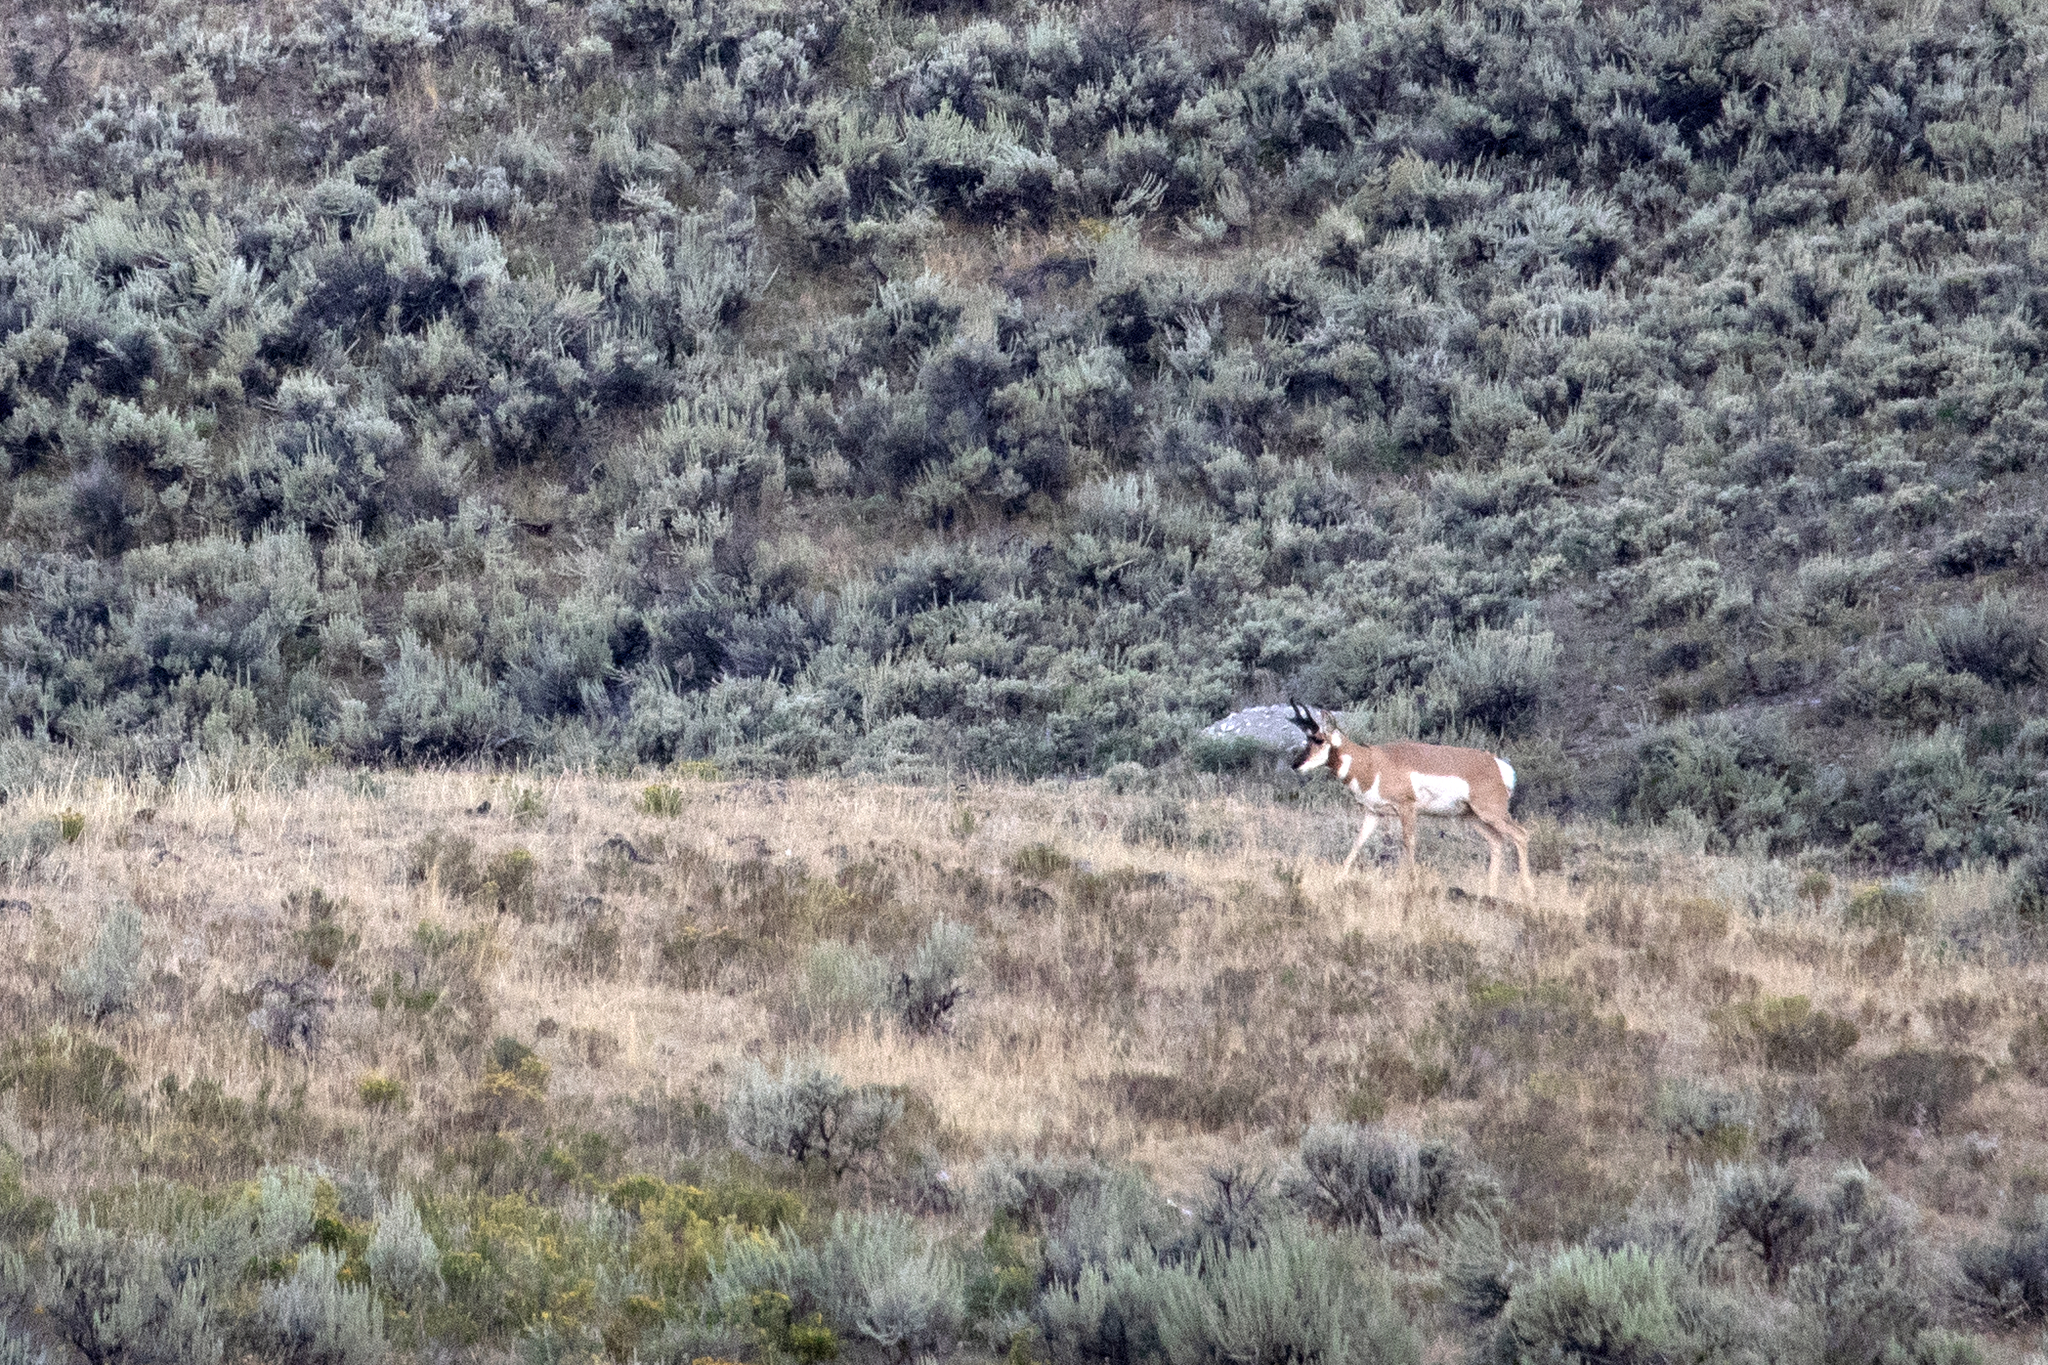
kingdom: Animalia
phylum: Chordata
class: Mammalia
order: Artiodactyla
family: Antilocapridae
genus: Antilocapra
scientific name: Antilocapra americana
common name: Pronghorn
